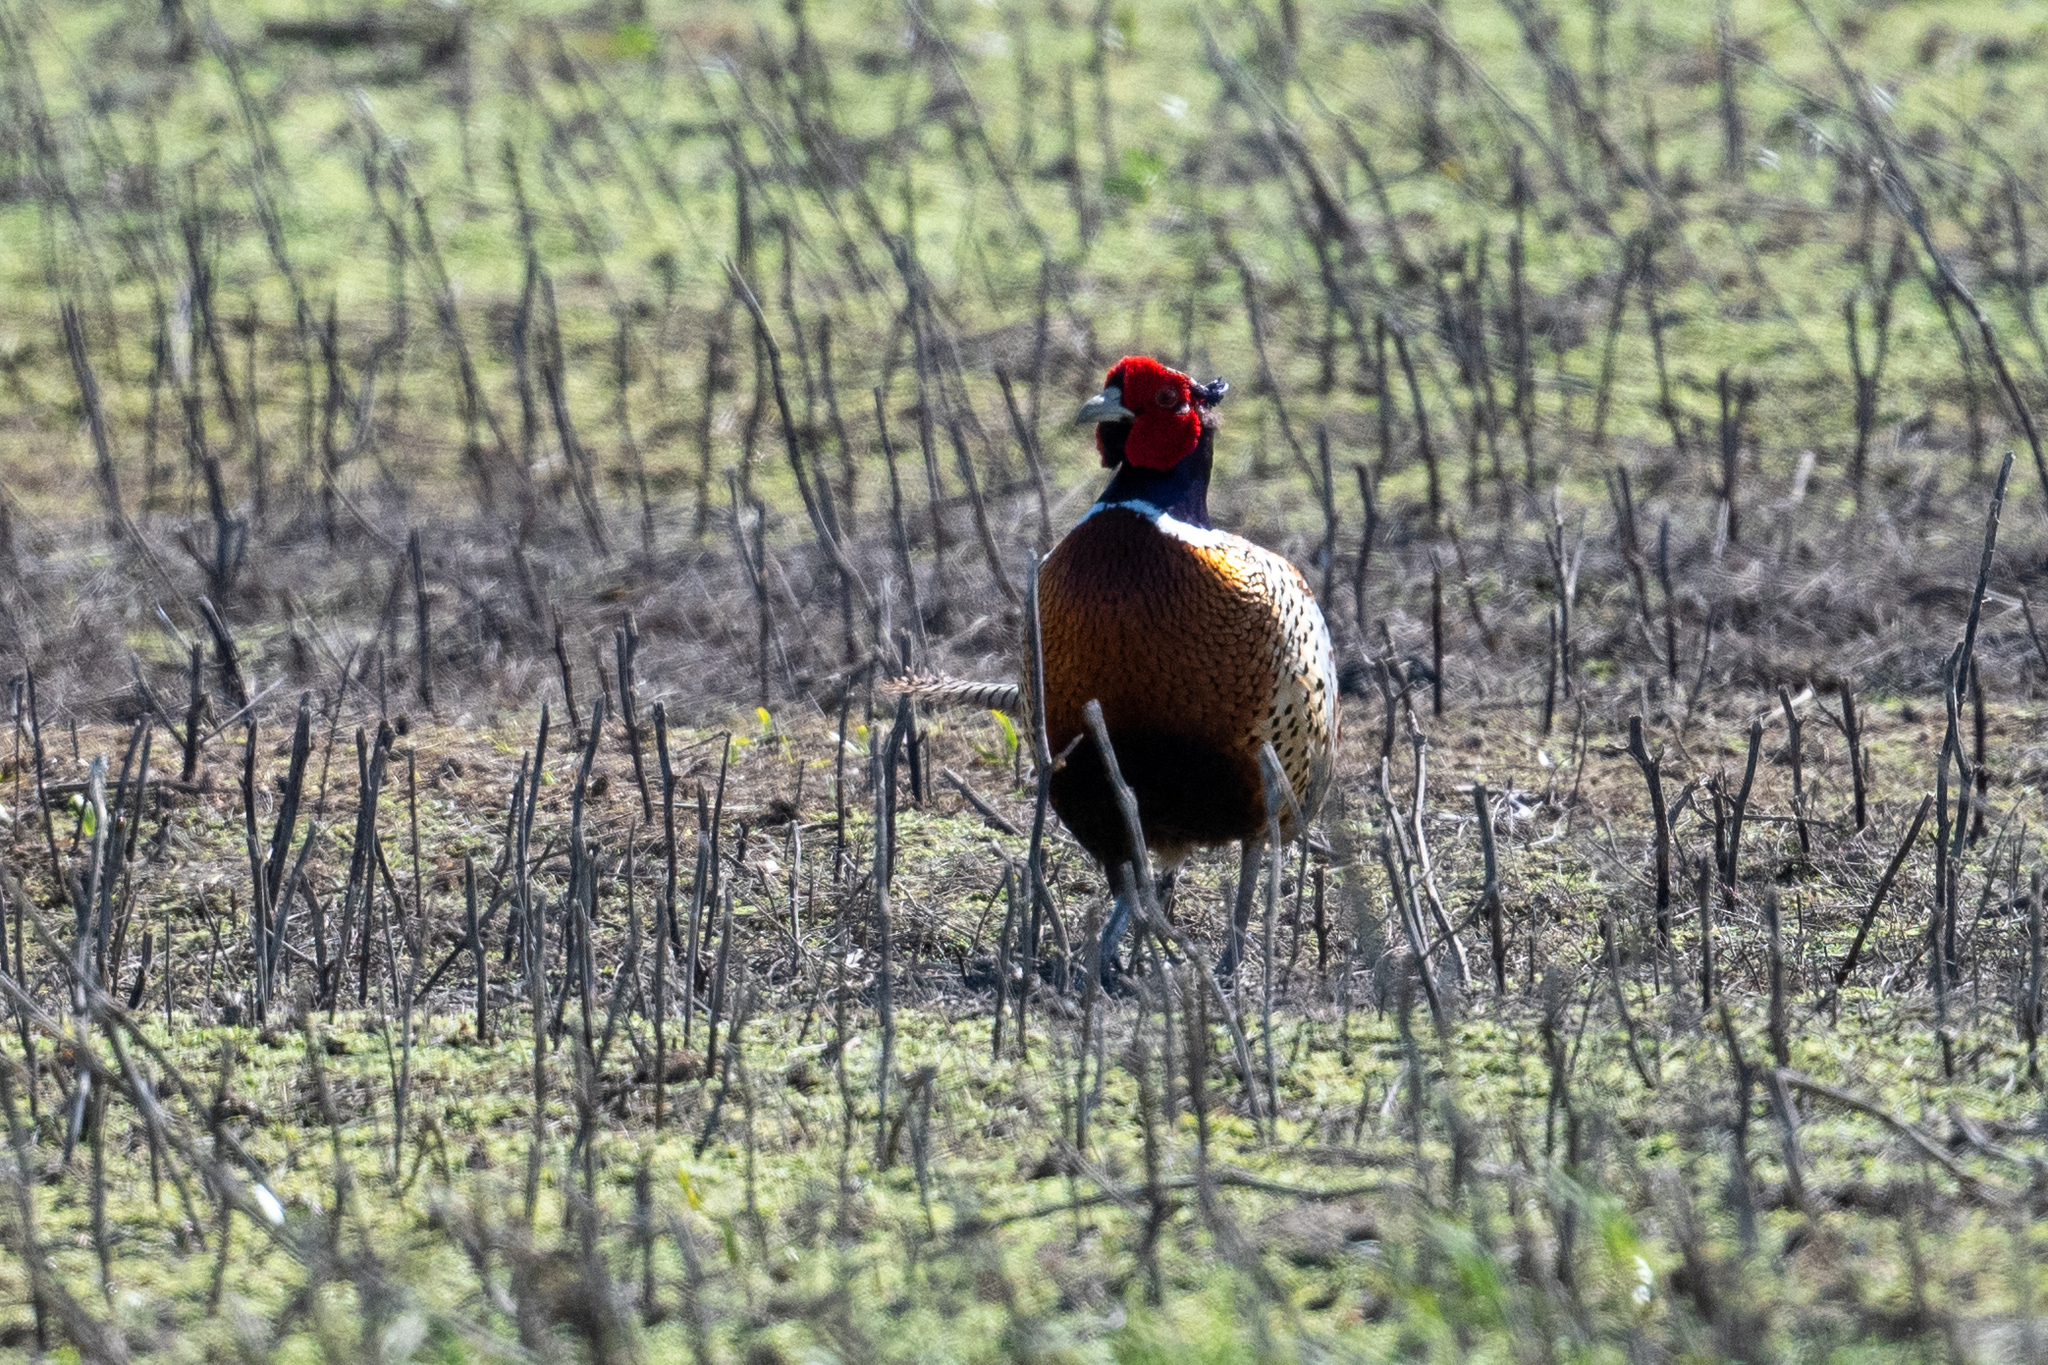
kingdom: Animalia
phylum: Chordata
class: Aves
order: Galliformes
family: Phasianidae
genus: Phasianus
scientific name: Phasianus colchicus
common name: Common pheasant
